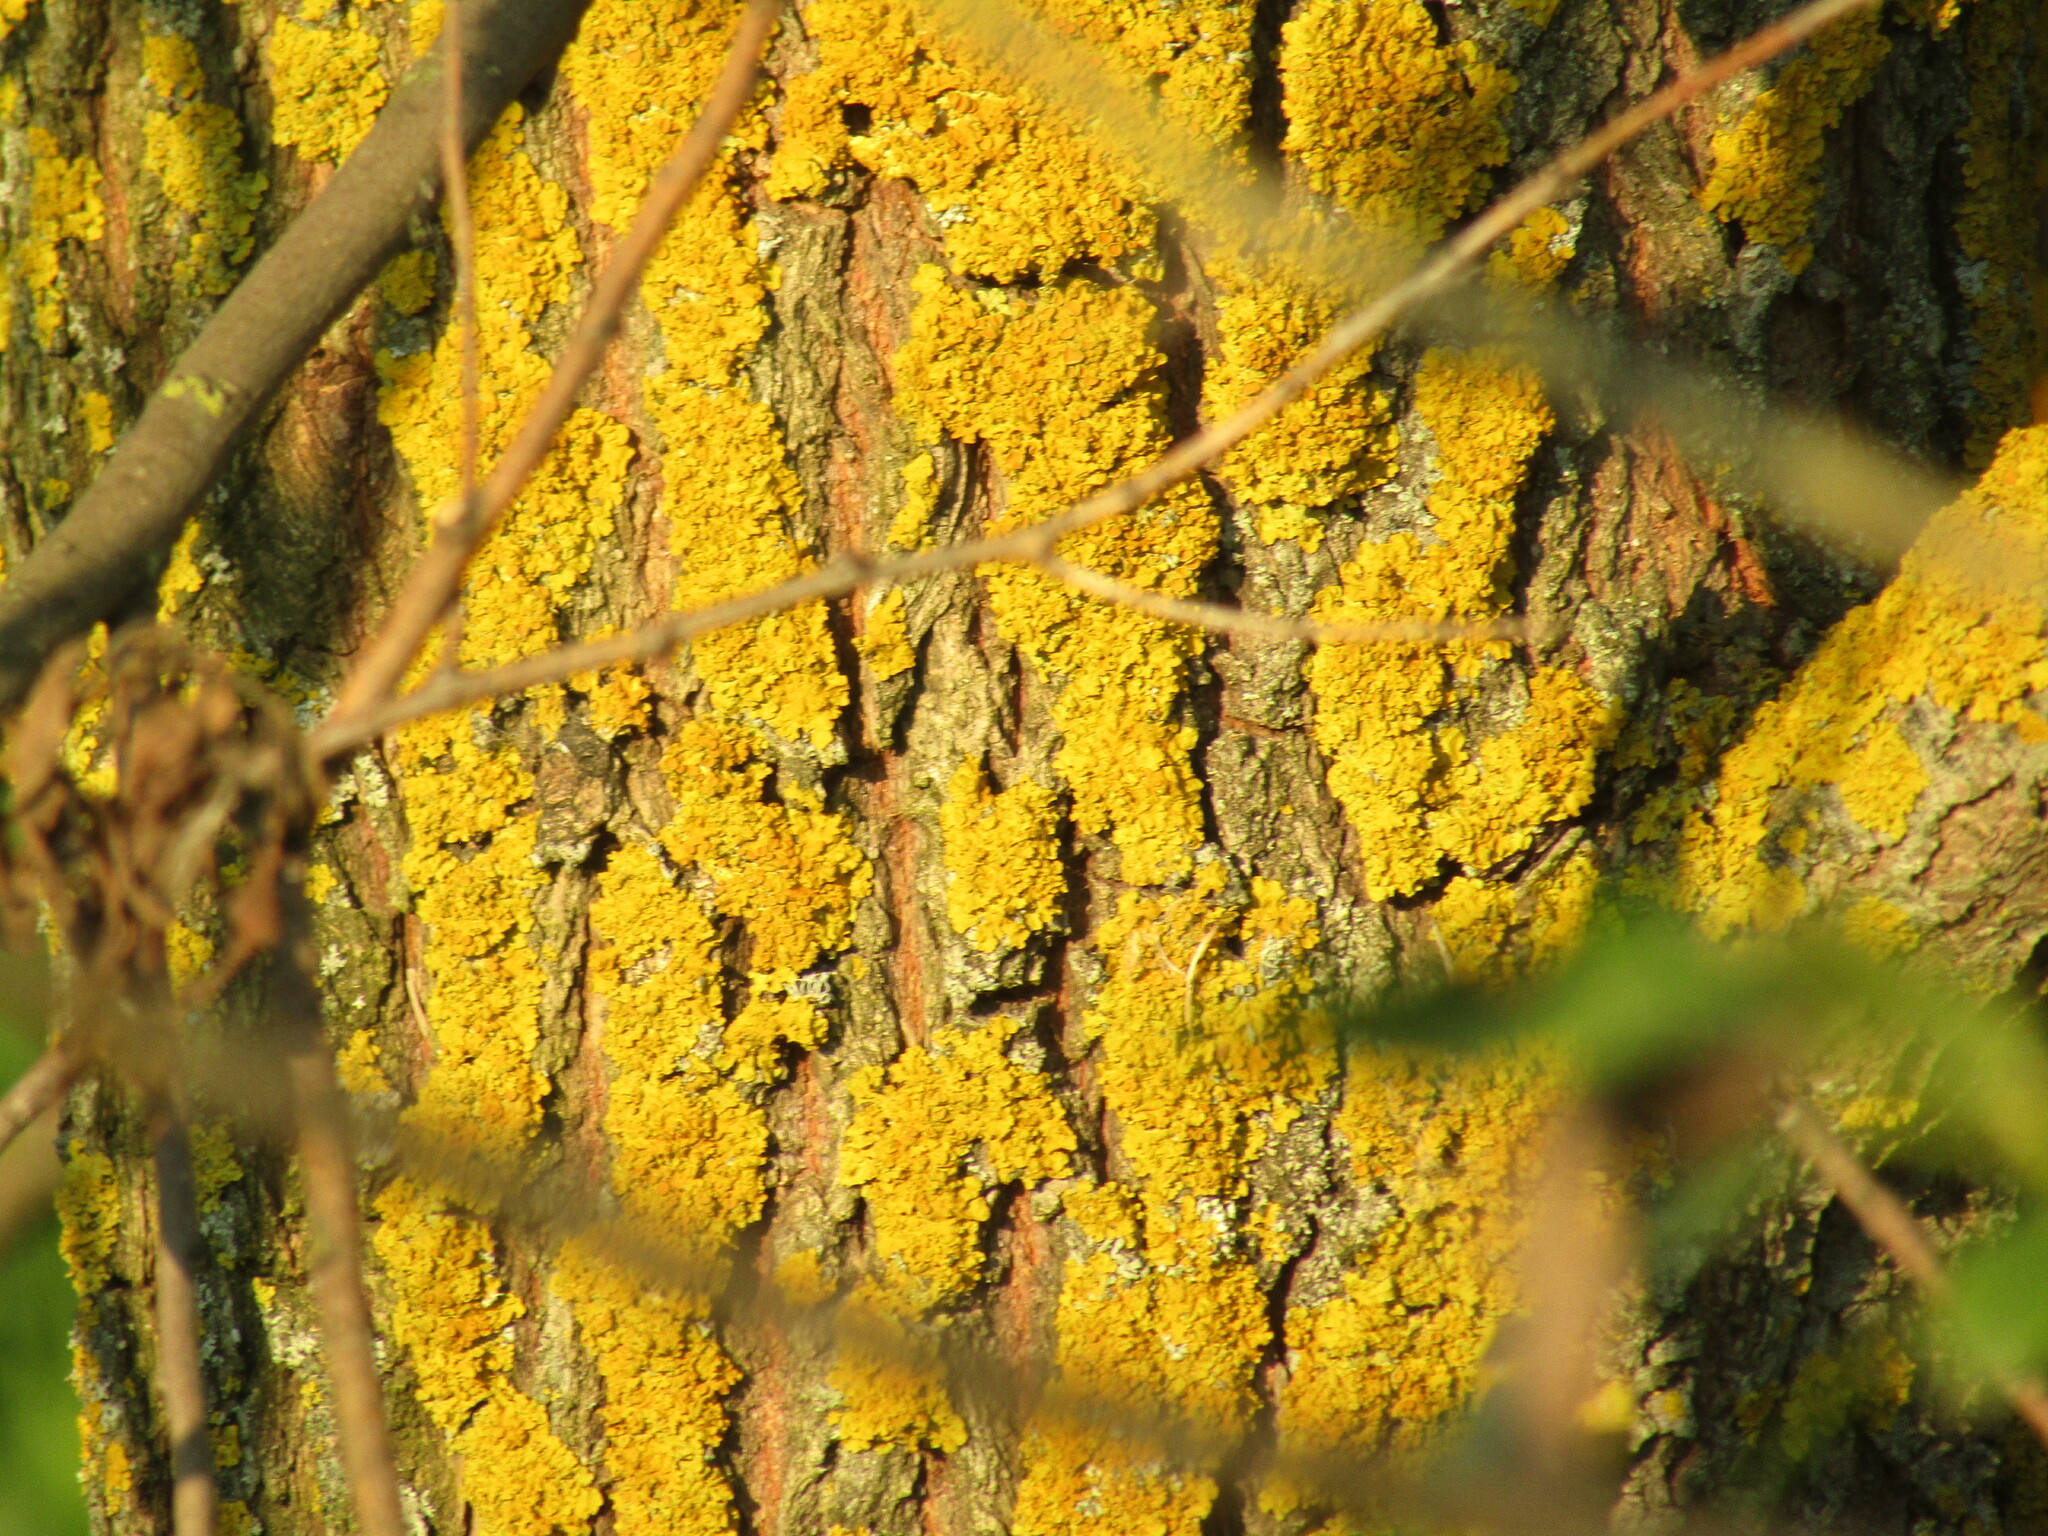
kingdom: Fungi
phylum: Ascomycota
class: Lecanoromycetes
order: Teloschistales
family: Teloschistaceae
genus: Xanthoria
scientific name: Xanthoria parietina
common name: Common orange lichen
